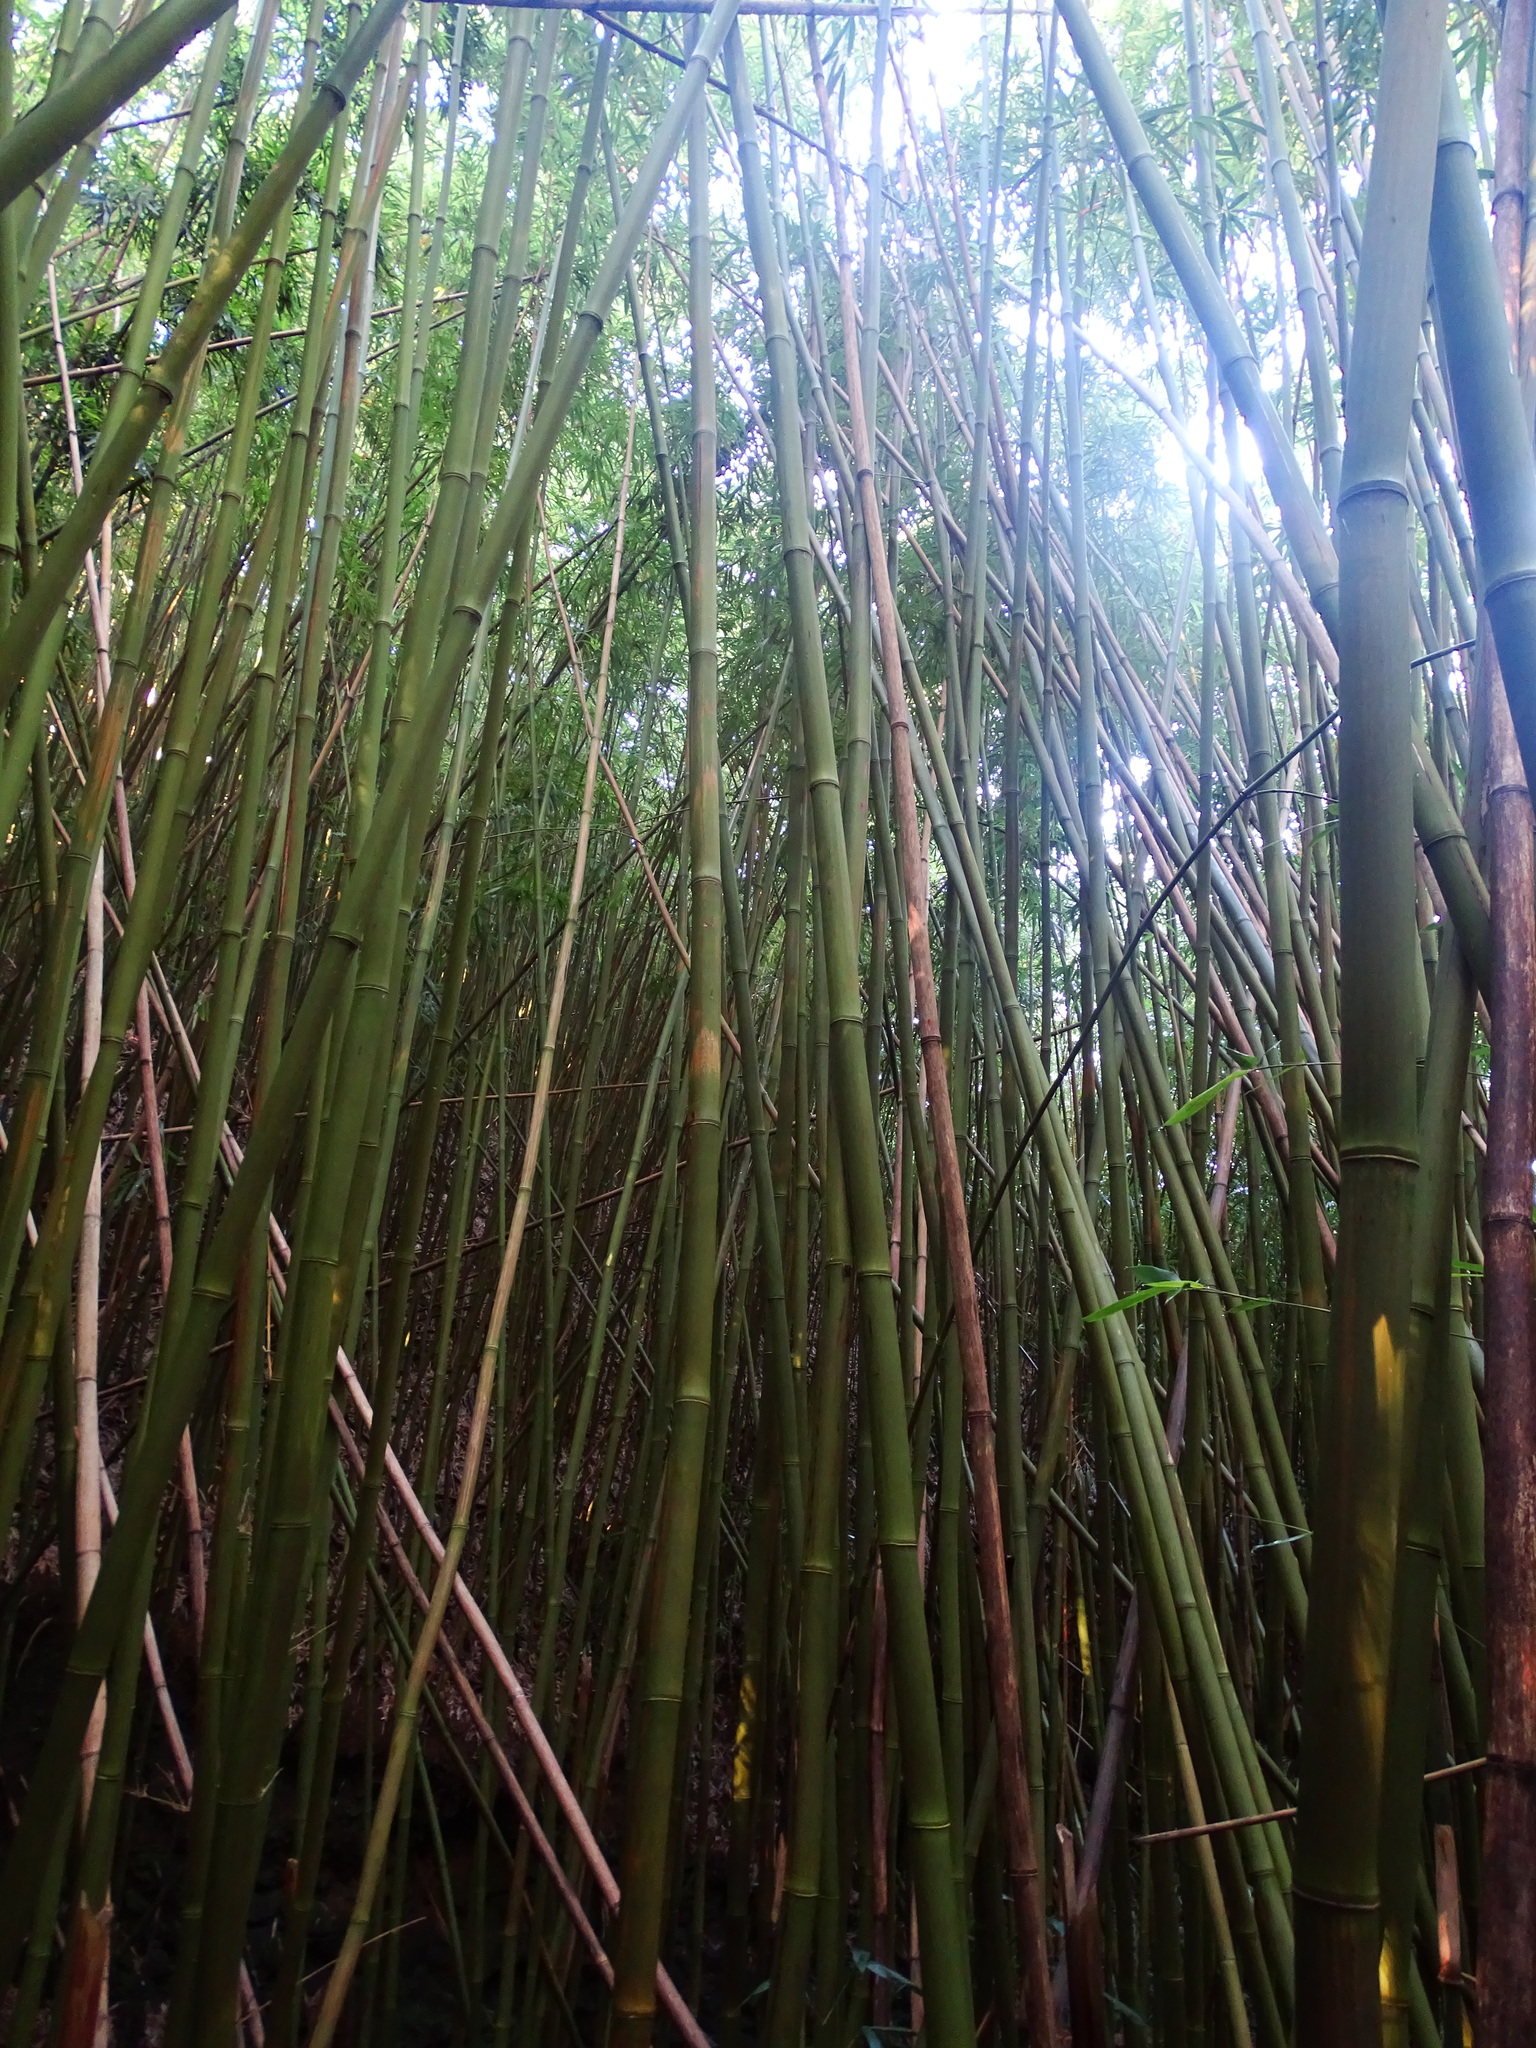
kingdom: Plantae
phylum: Tracheophyta
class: Liliopsida
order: Poales
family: Poaceae
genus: Phyllostachys
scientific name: Phyllostachys nigra
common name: Black bamboo
